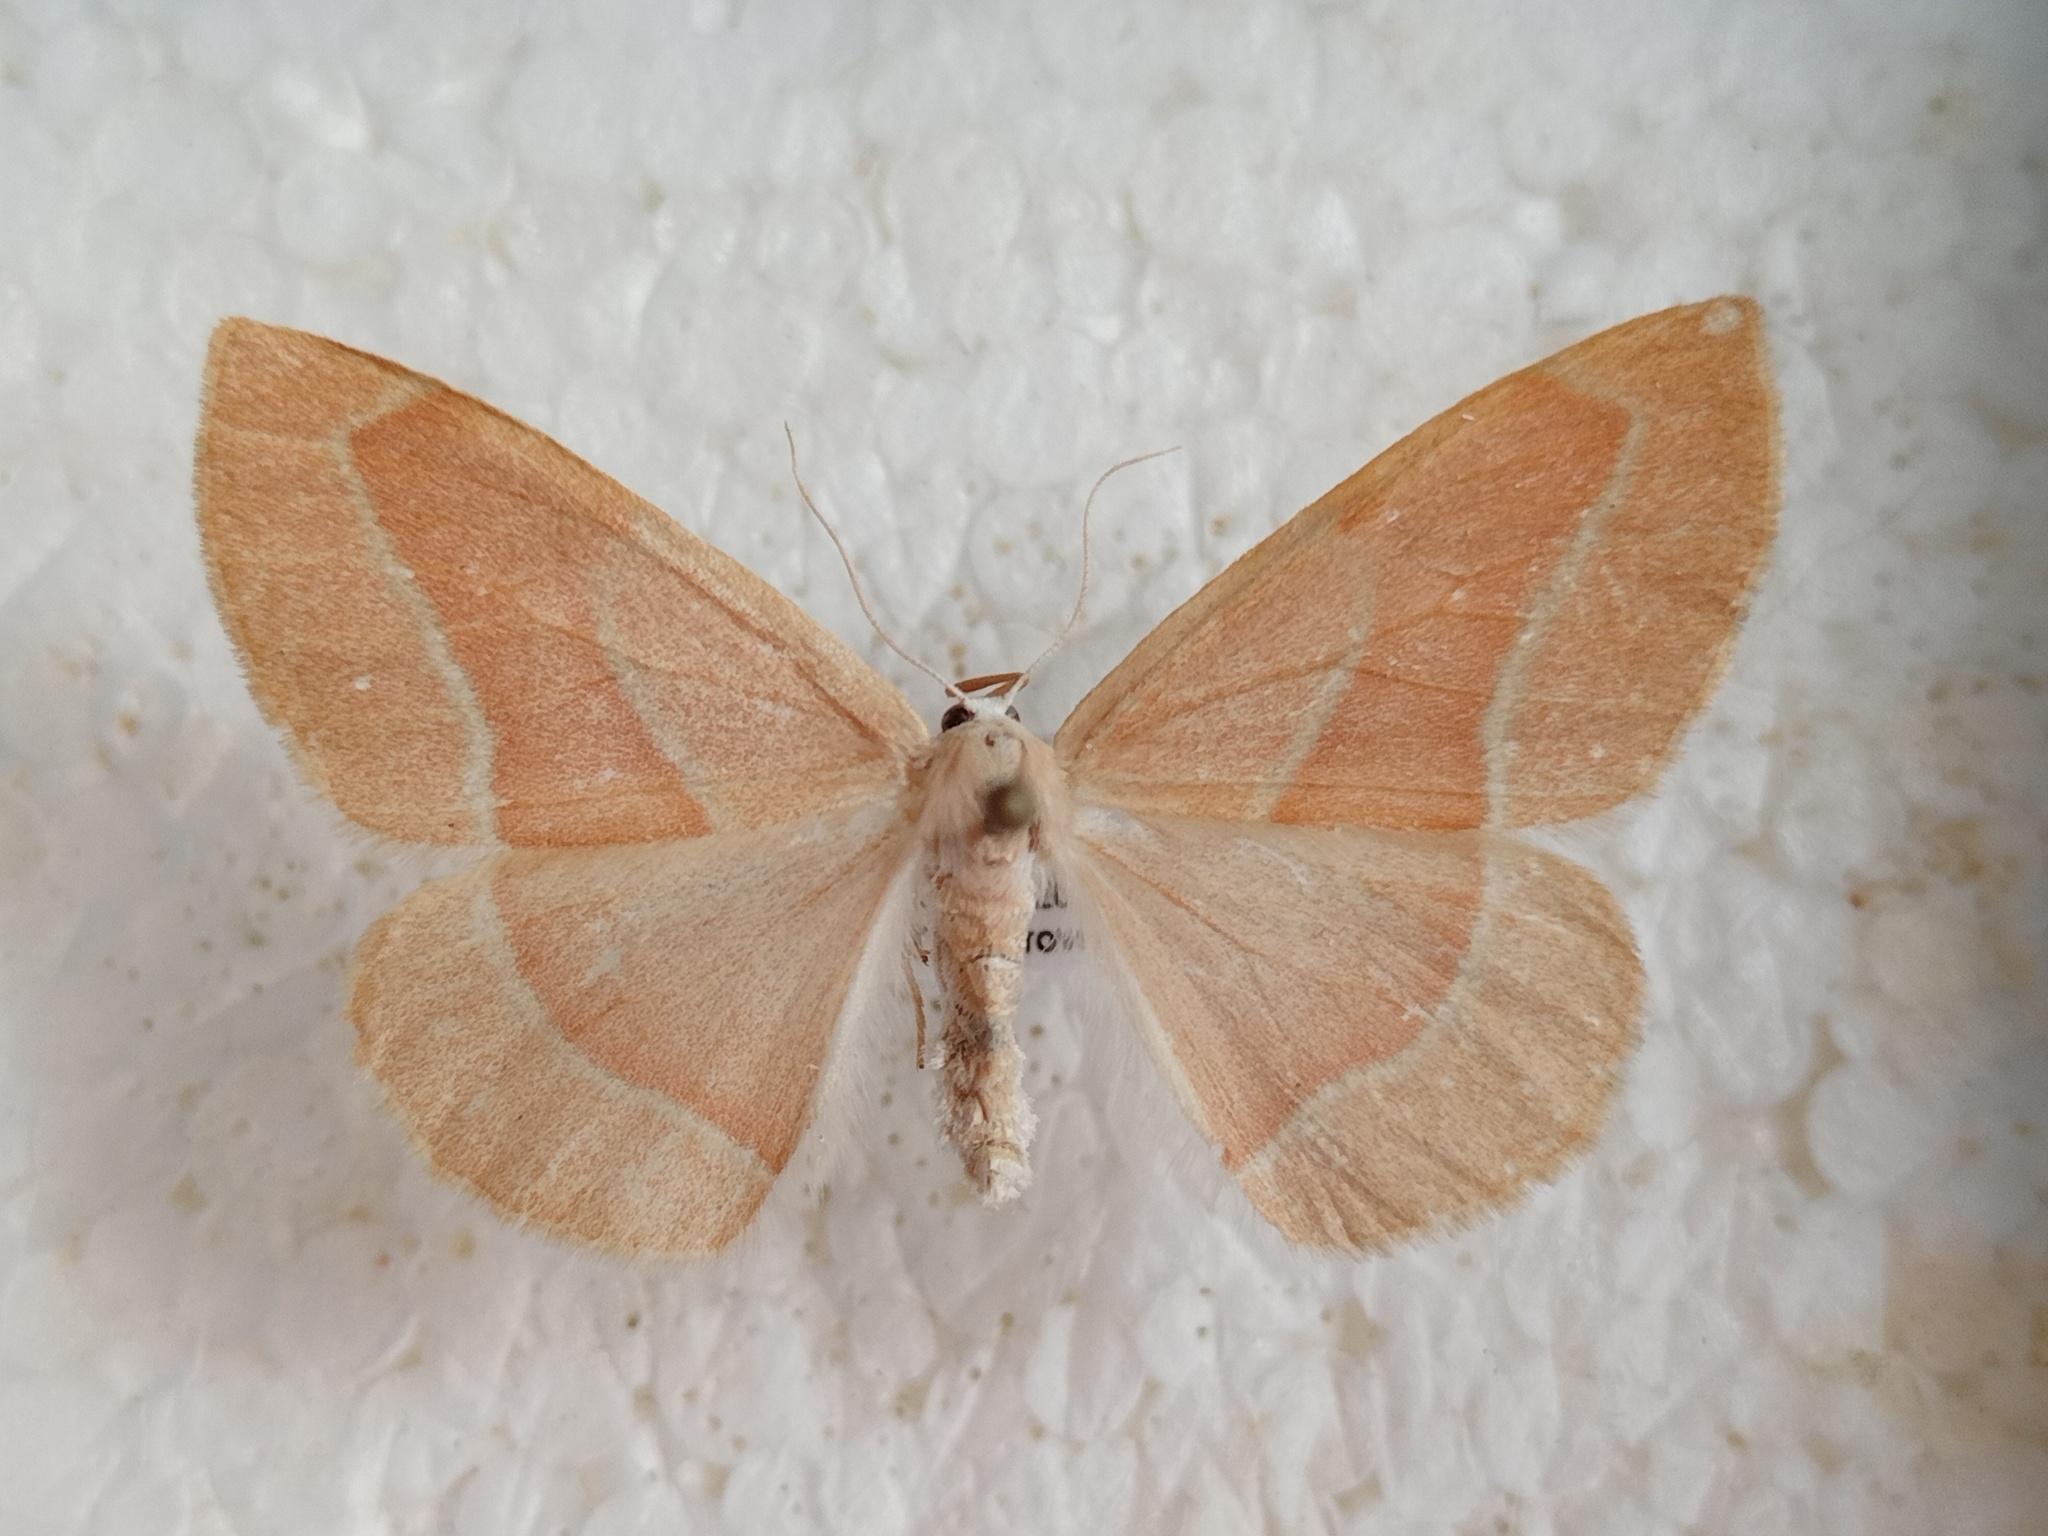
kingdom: Animalia
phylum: Arthropoda
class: Insecta
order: Lepidoptera
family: Geometridae
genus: Hylaea
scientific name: Hylaea fasciaria
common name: Barred red
